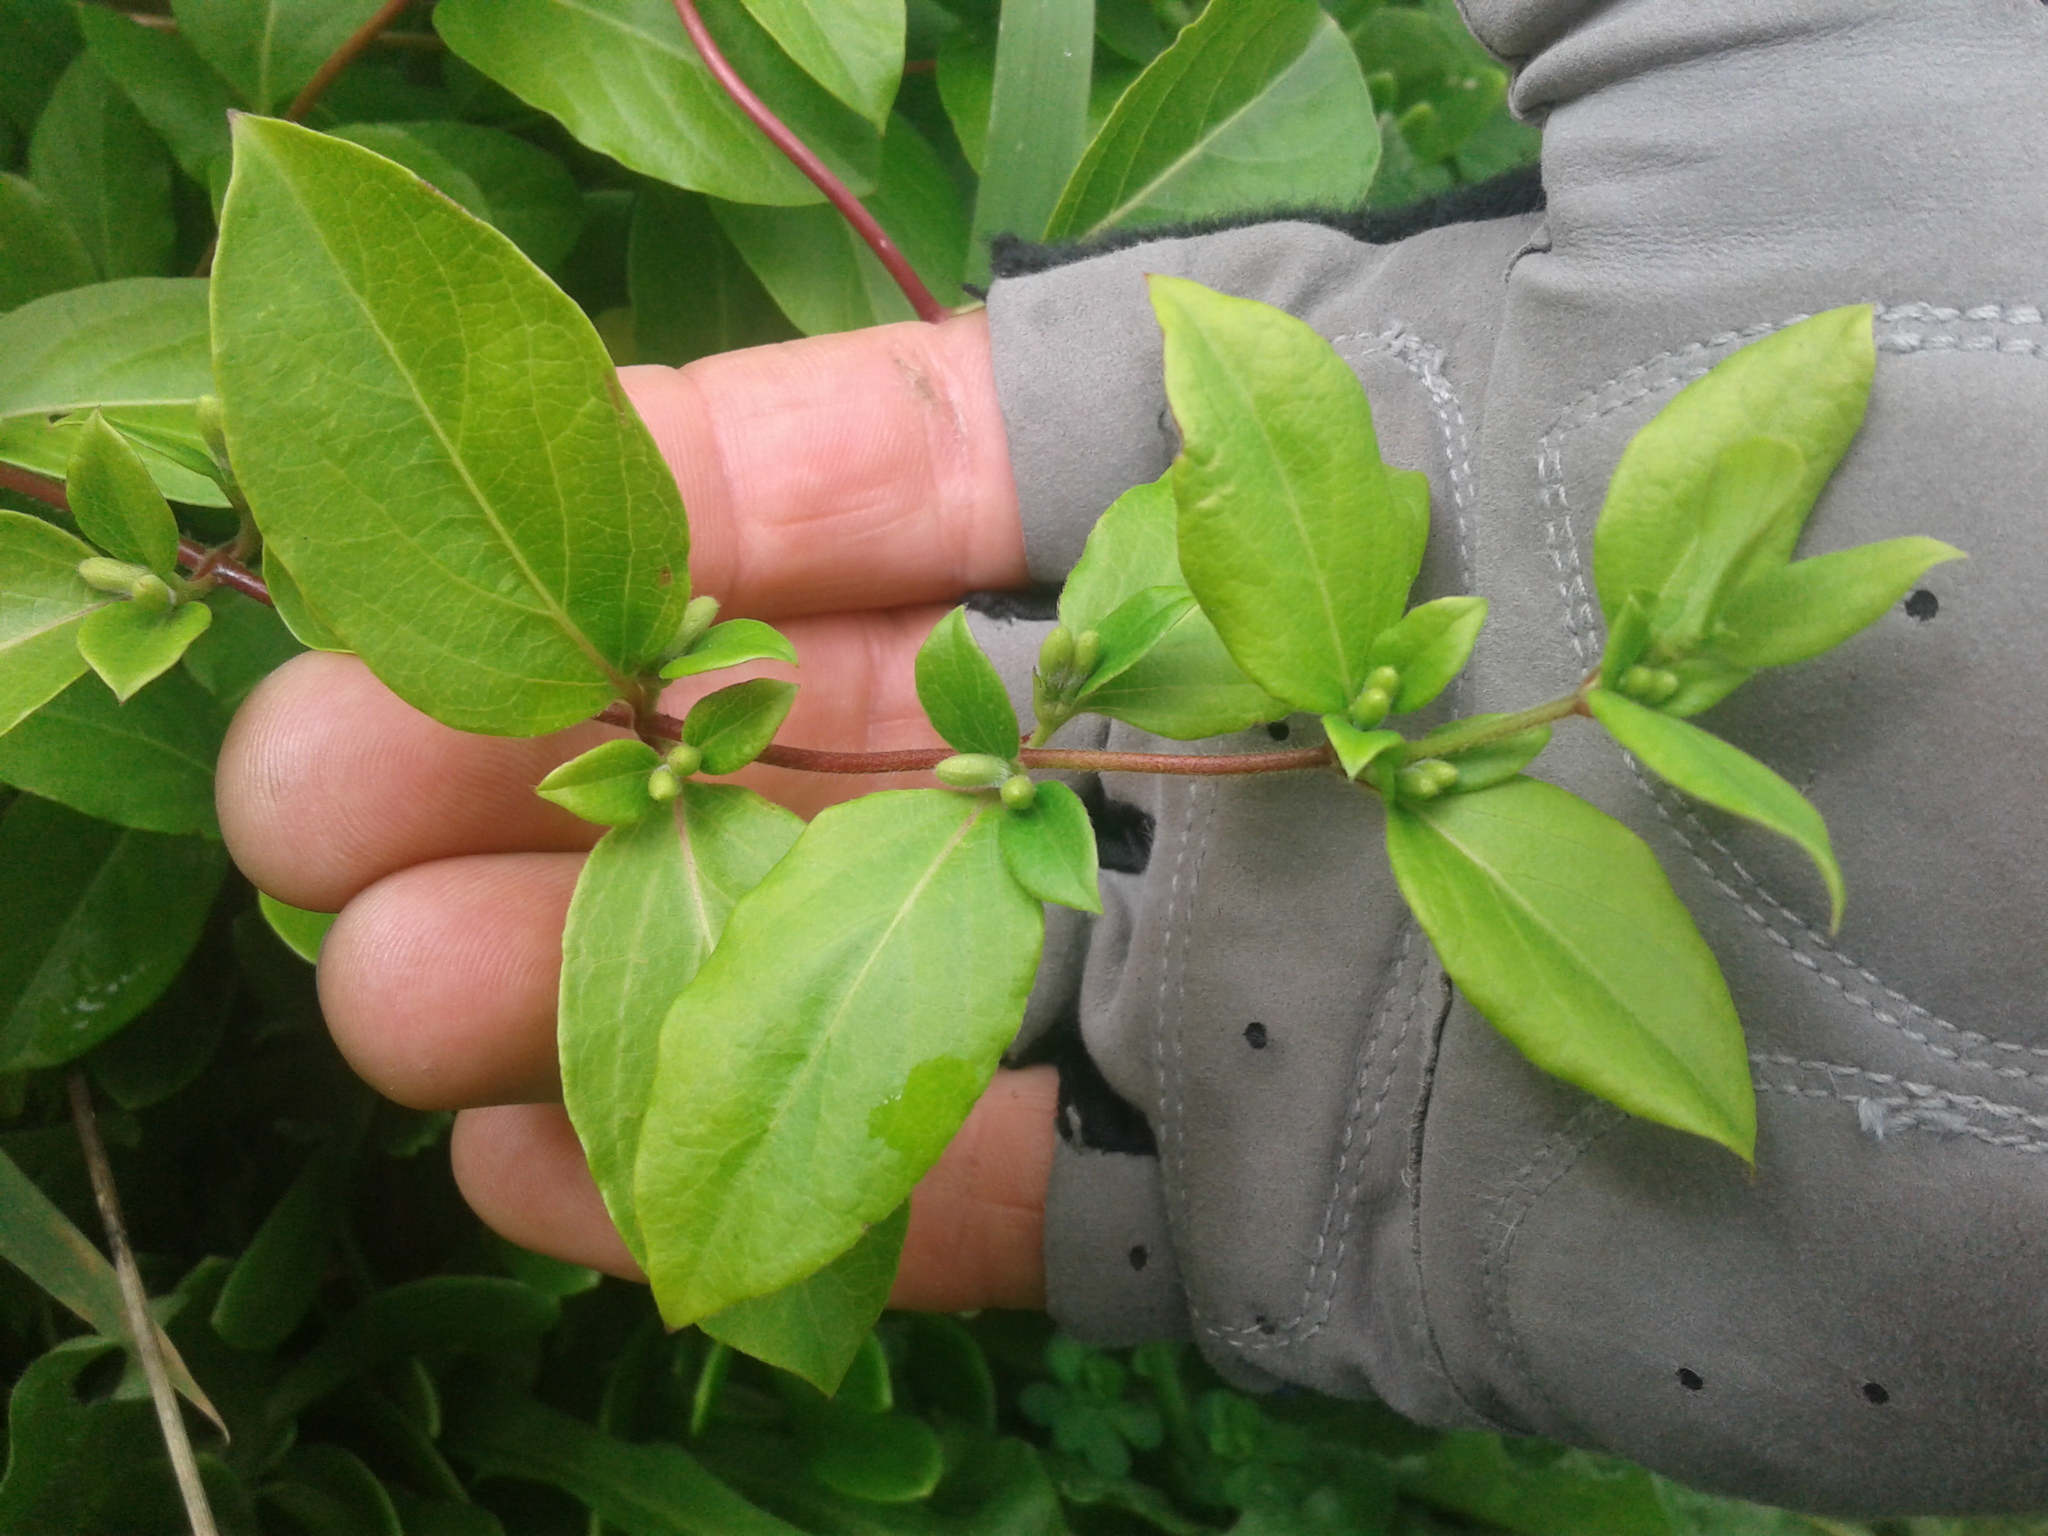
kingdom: Plantae
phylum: Tracheophyta
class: Magnoliopsida
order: Dipsacales
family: Caprifoliaceae
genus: Lonicera
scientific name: Lonicera japonica
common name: Japanese honeysuckle
